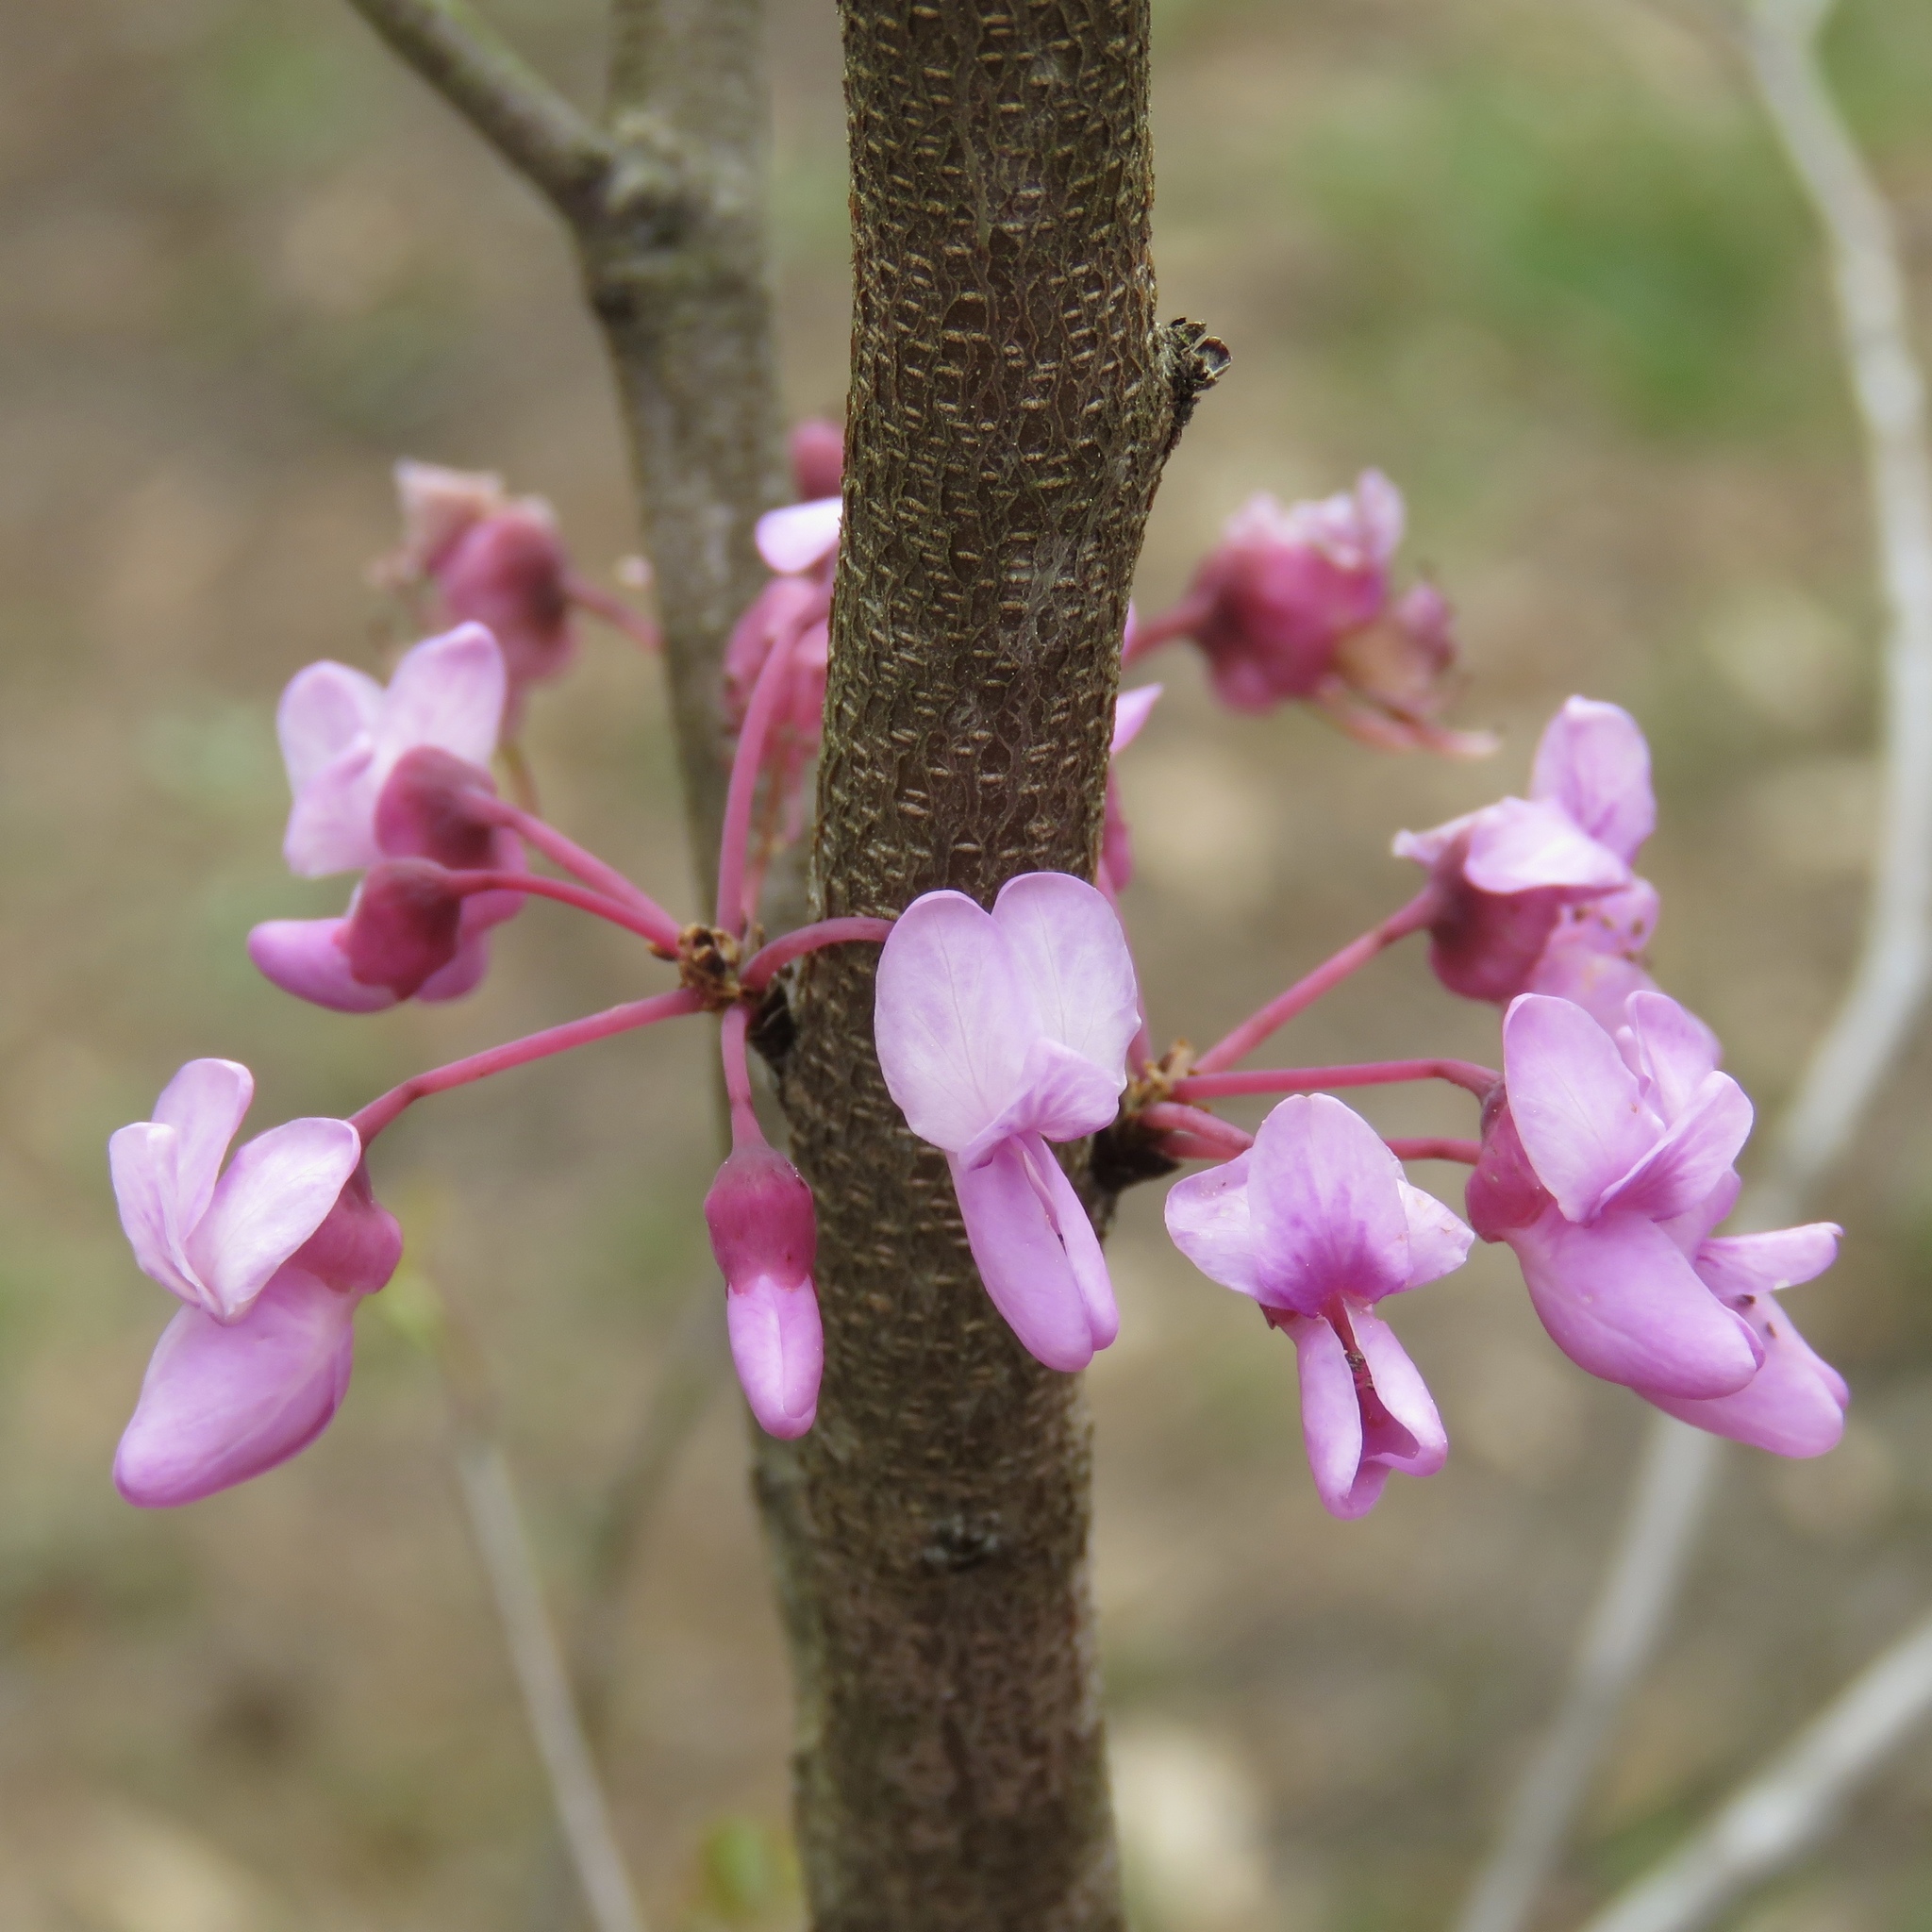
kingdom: Plantae
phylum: Tracheophyta
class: Magnoliopsida
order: Fabales
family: Fabaceae
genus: Cercis
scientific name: Cercis canadensis
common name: Eastern redbud
